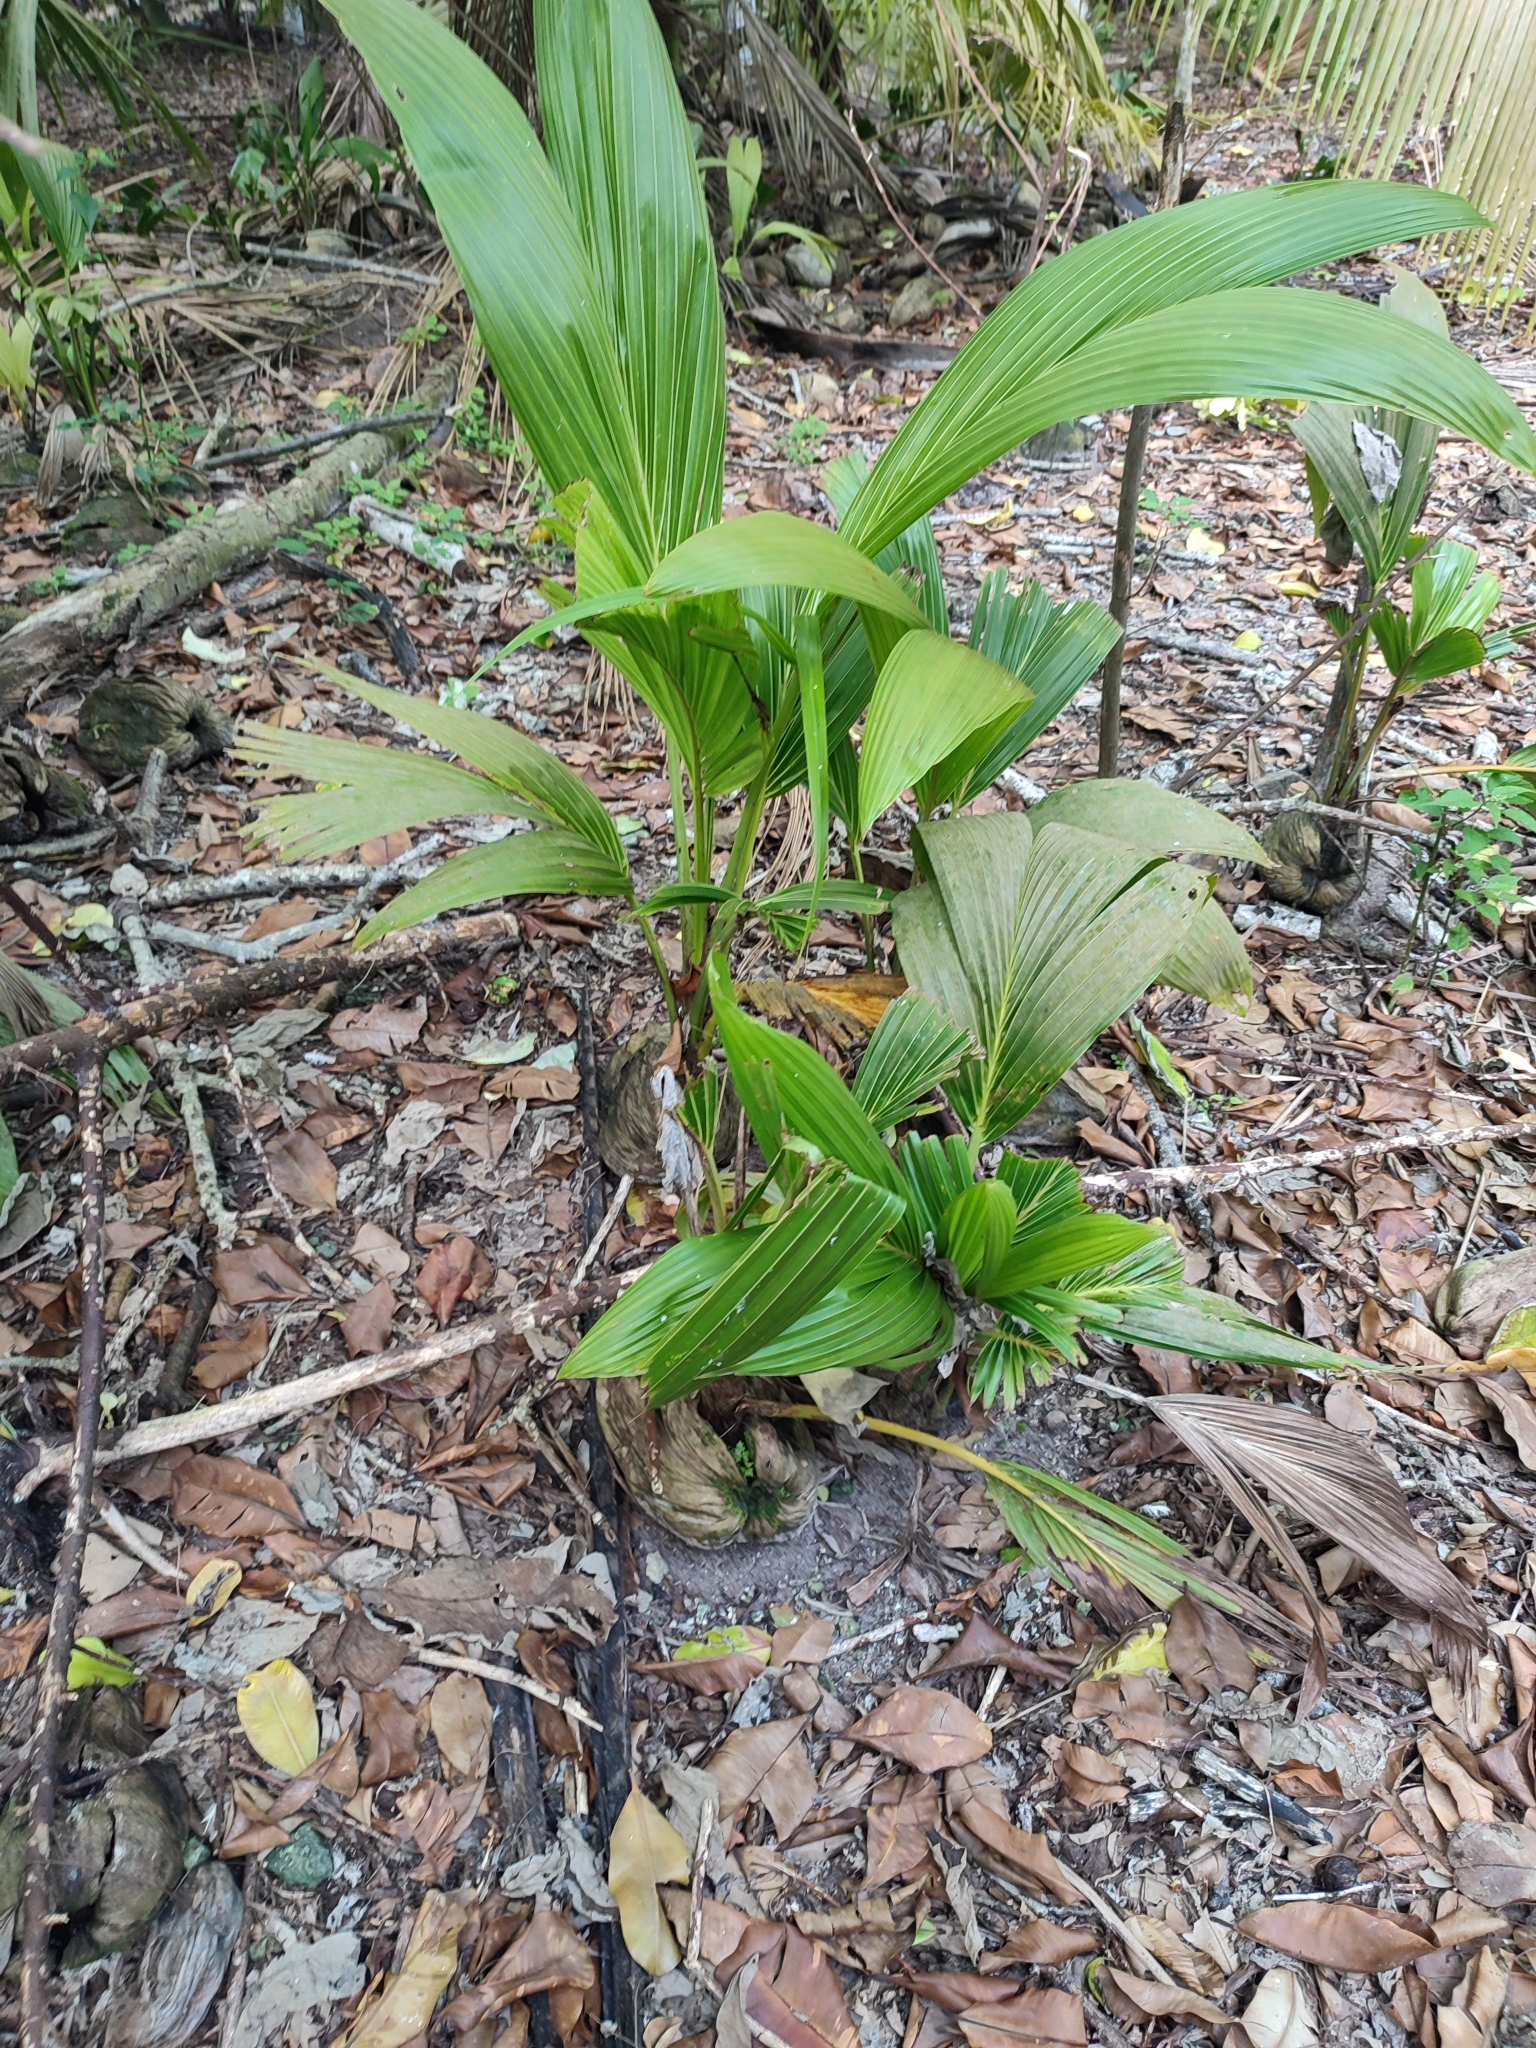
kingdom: Plantae
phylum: Tracheophyta
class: Liliopsida
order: Arecales
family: Arecaceae
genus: Cocos
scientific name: Cocos nucifera
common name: Coconut palm
